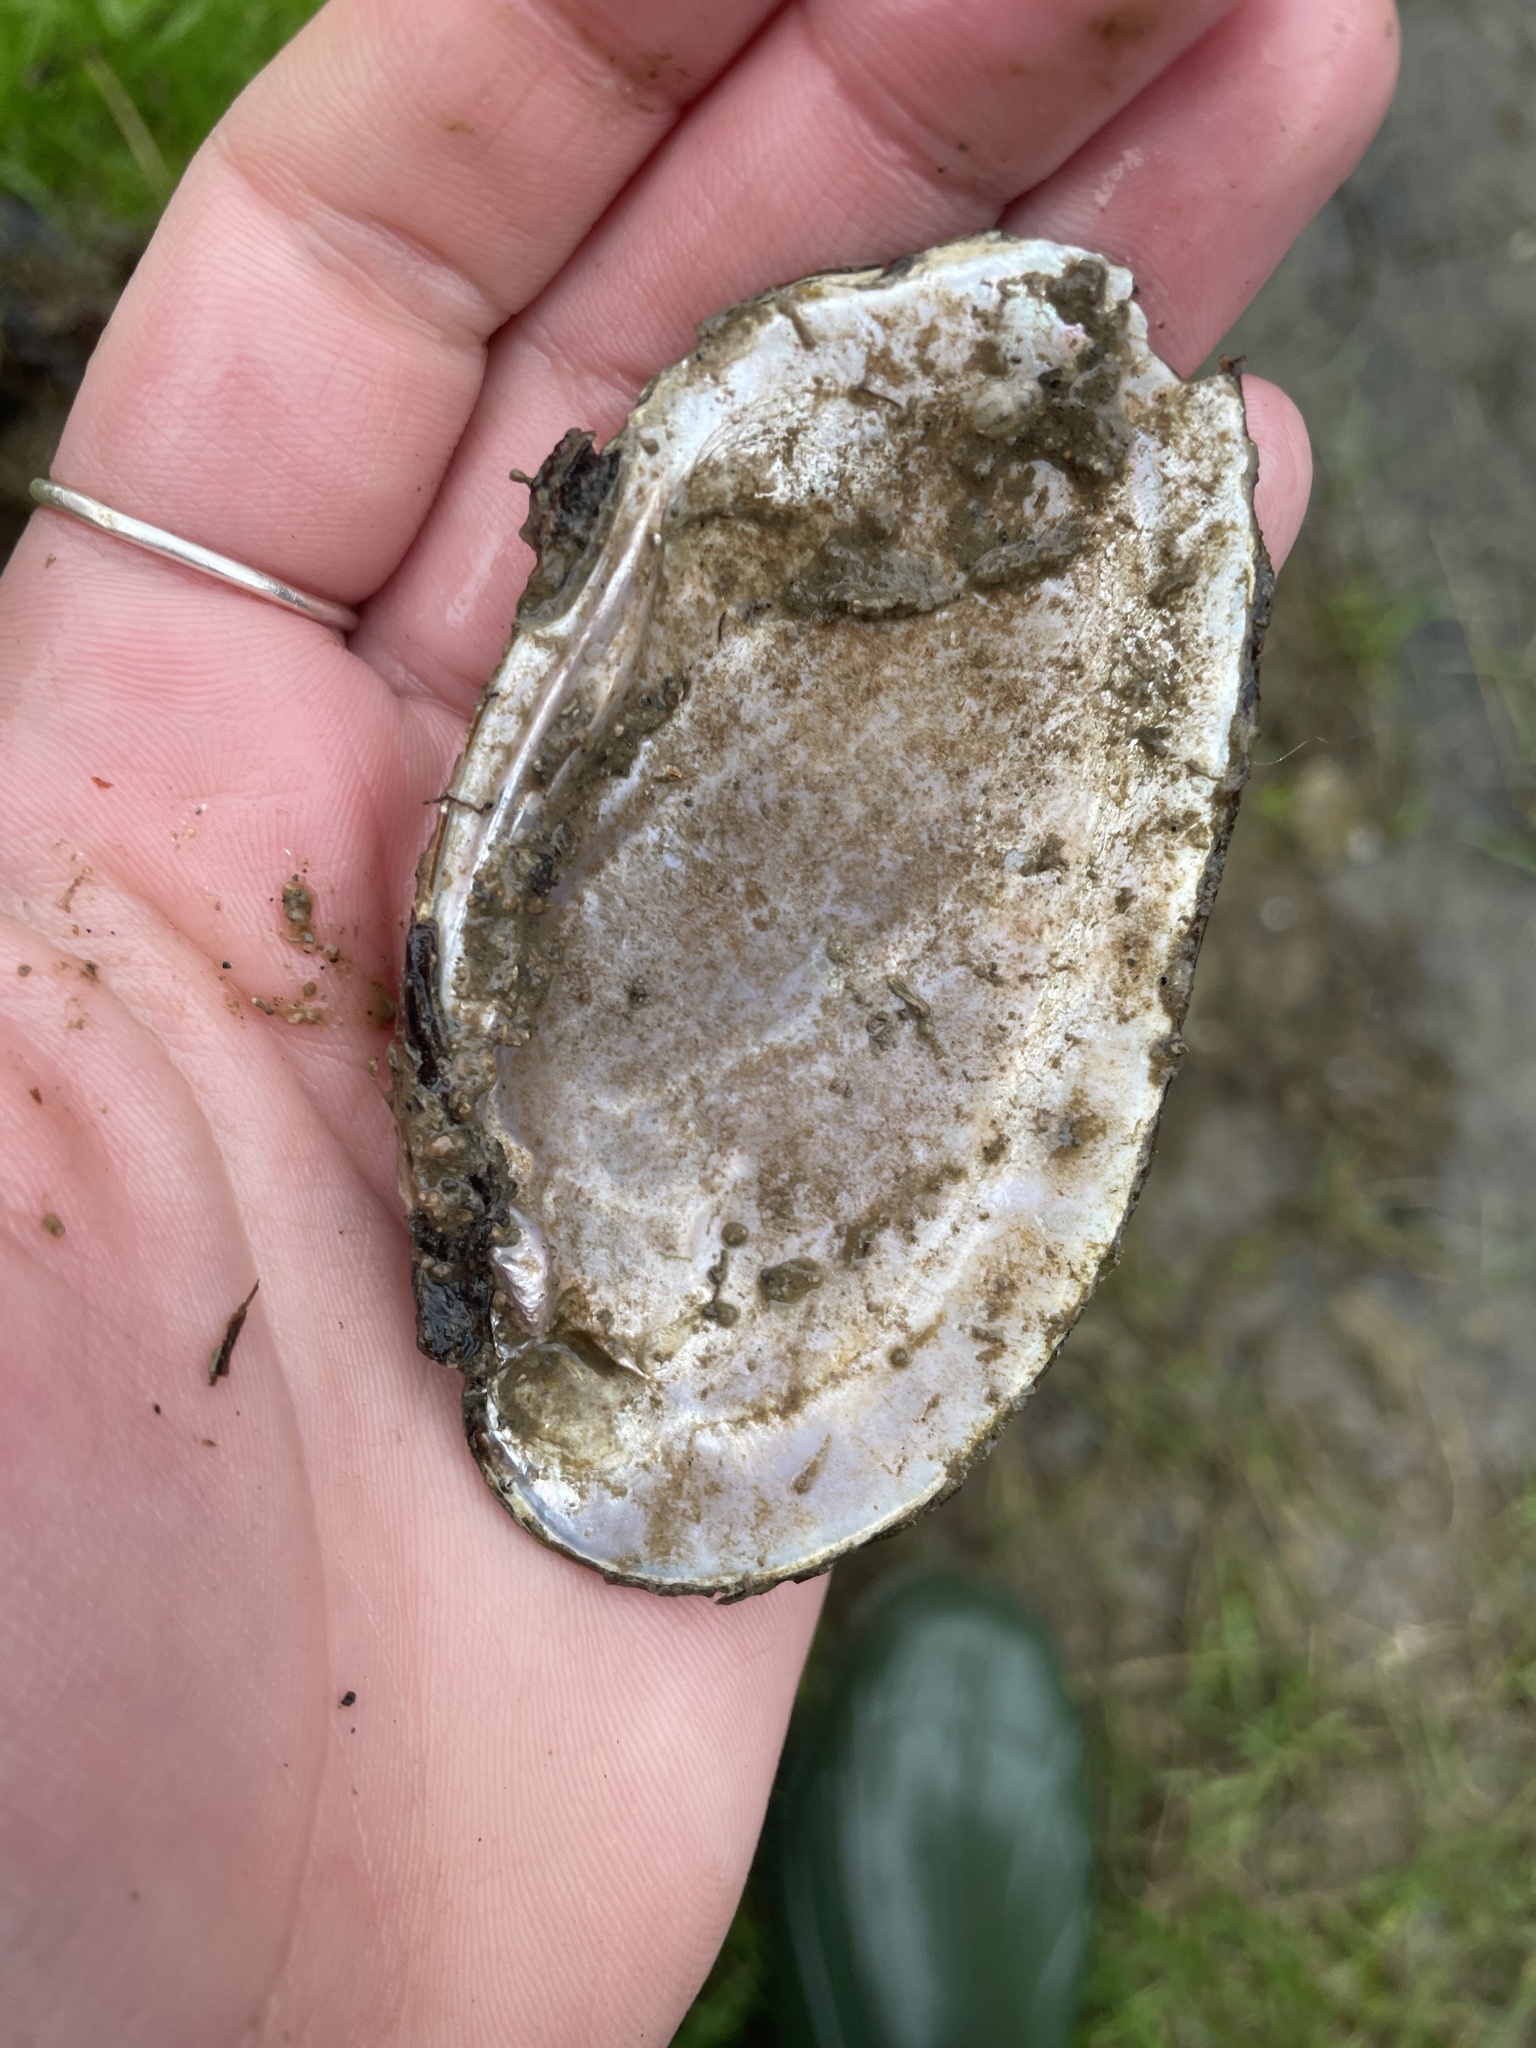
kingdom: Animalia
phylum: Mollusca
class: Bivalvia
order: Unionida
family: Unionidae
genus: Eurynia
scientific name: Eurynia dilatata
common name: Spike
